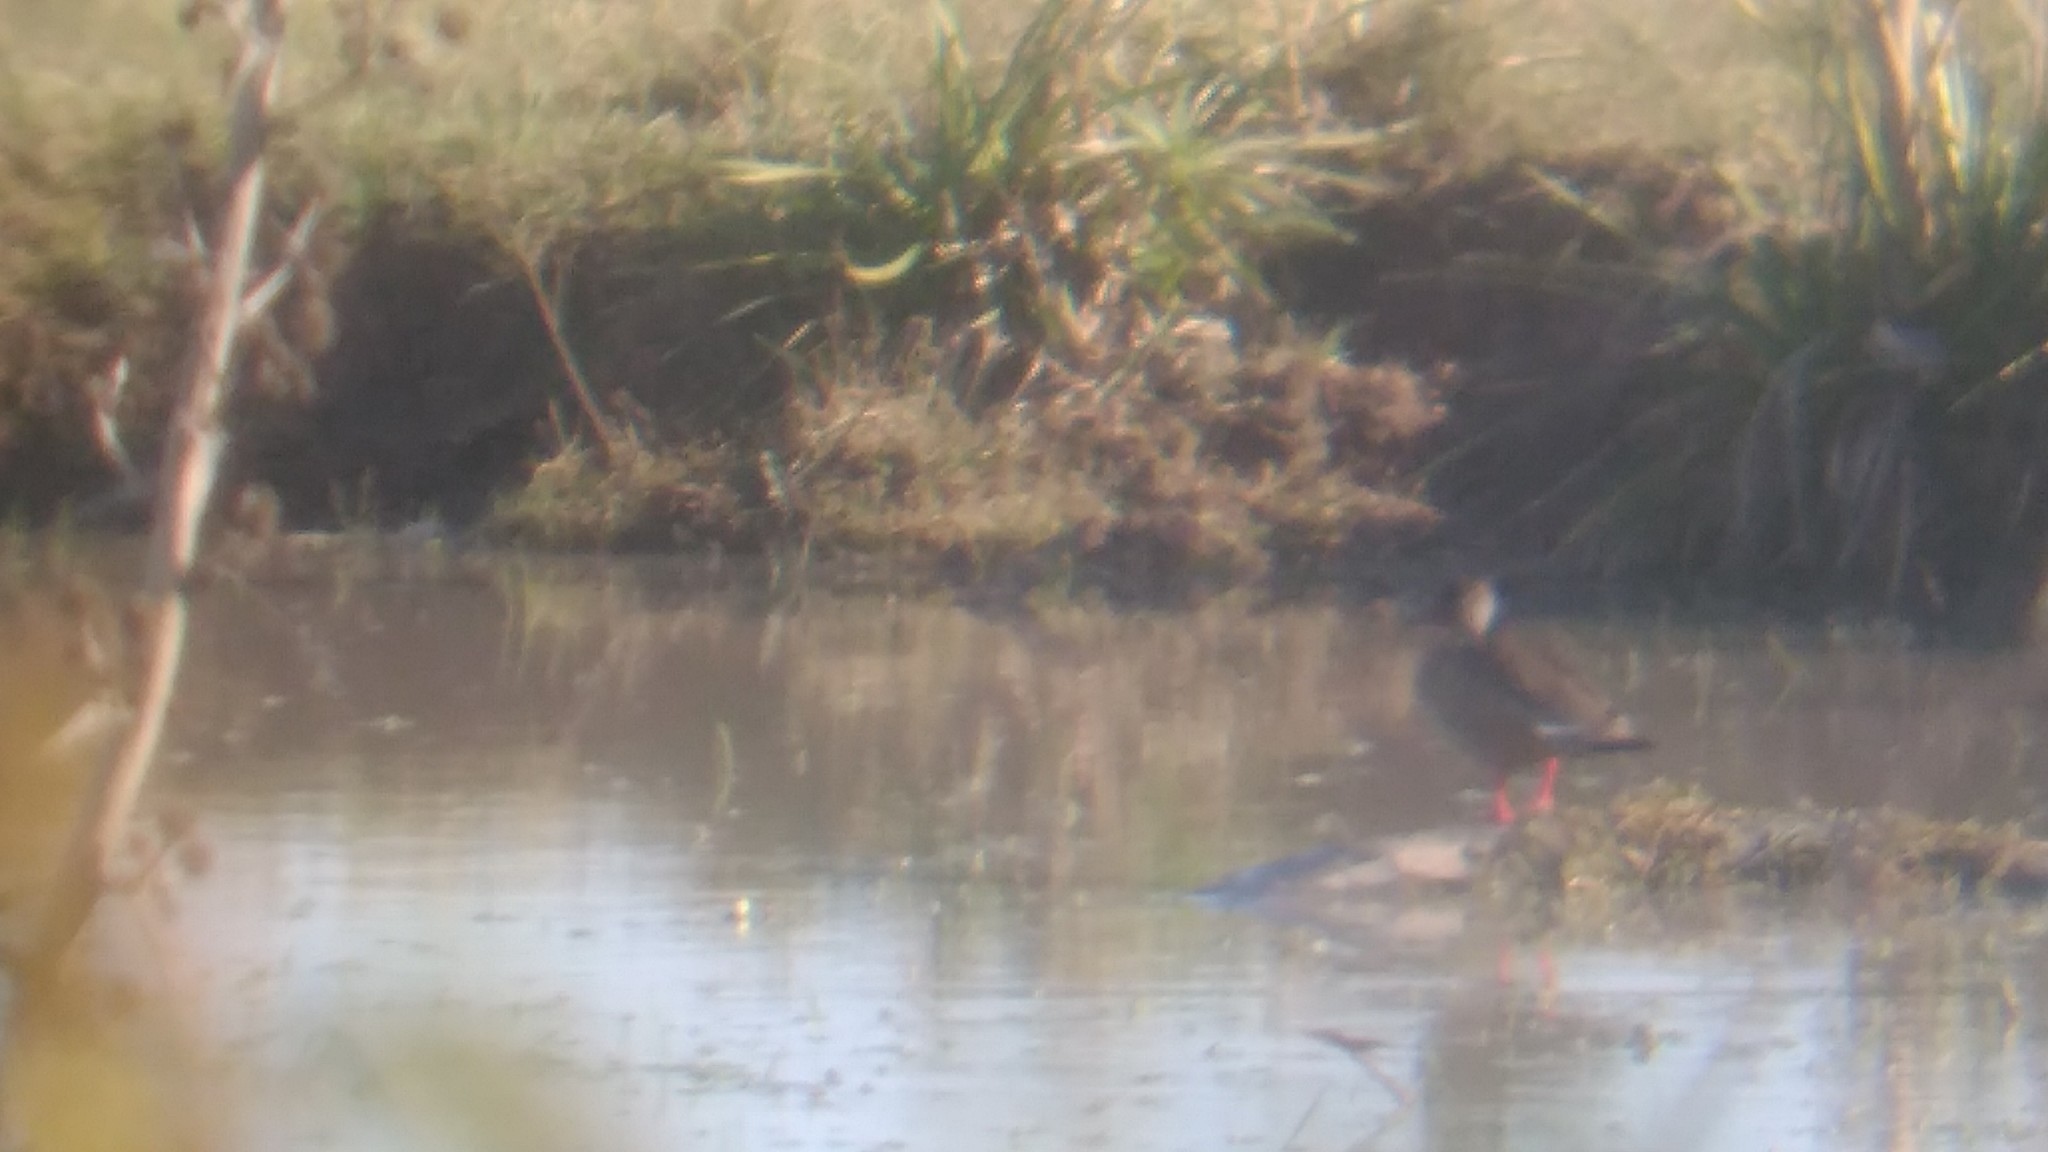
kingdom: Animalia
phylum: Chordata
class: Aves
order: Anseriformes
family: Anatidae
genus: Amazonetta
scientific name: Amazonetta brasiliensis
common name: Brazilian teal
